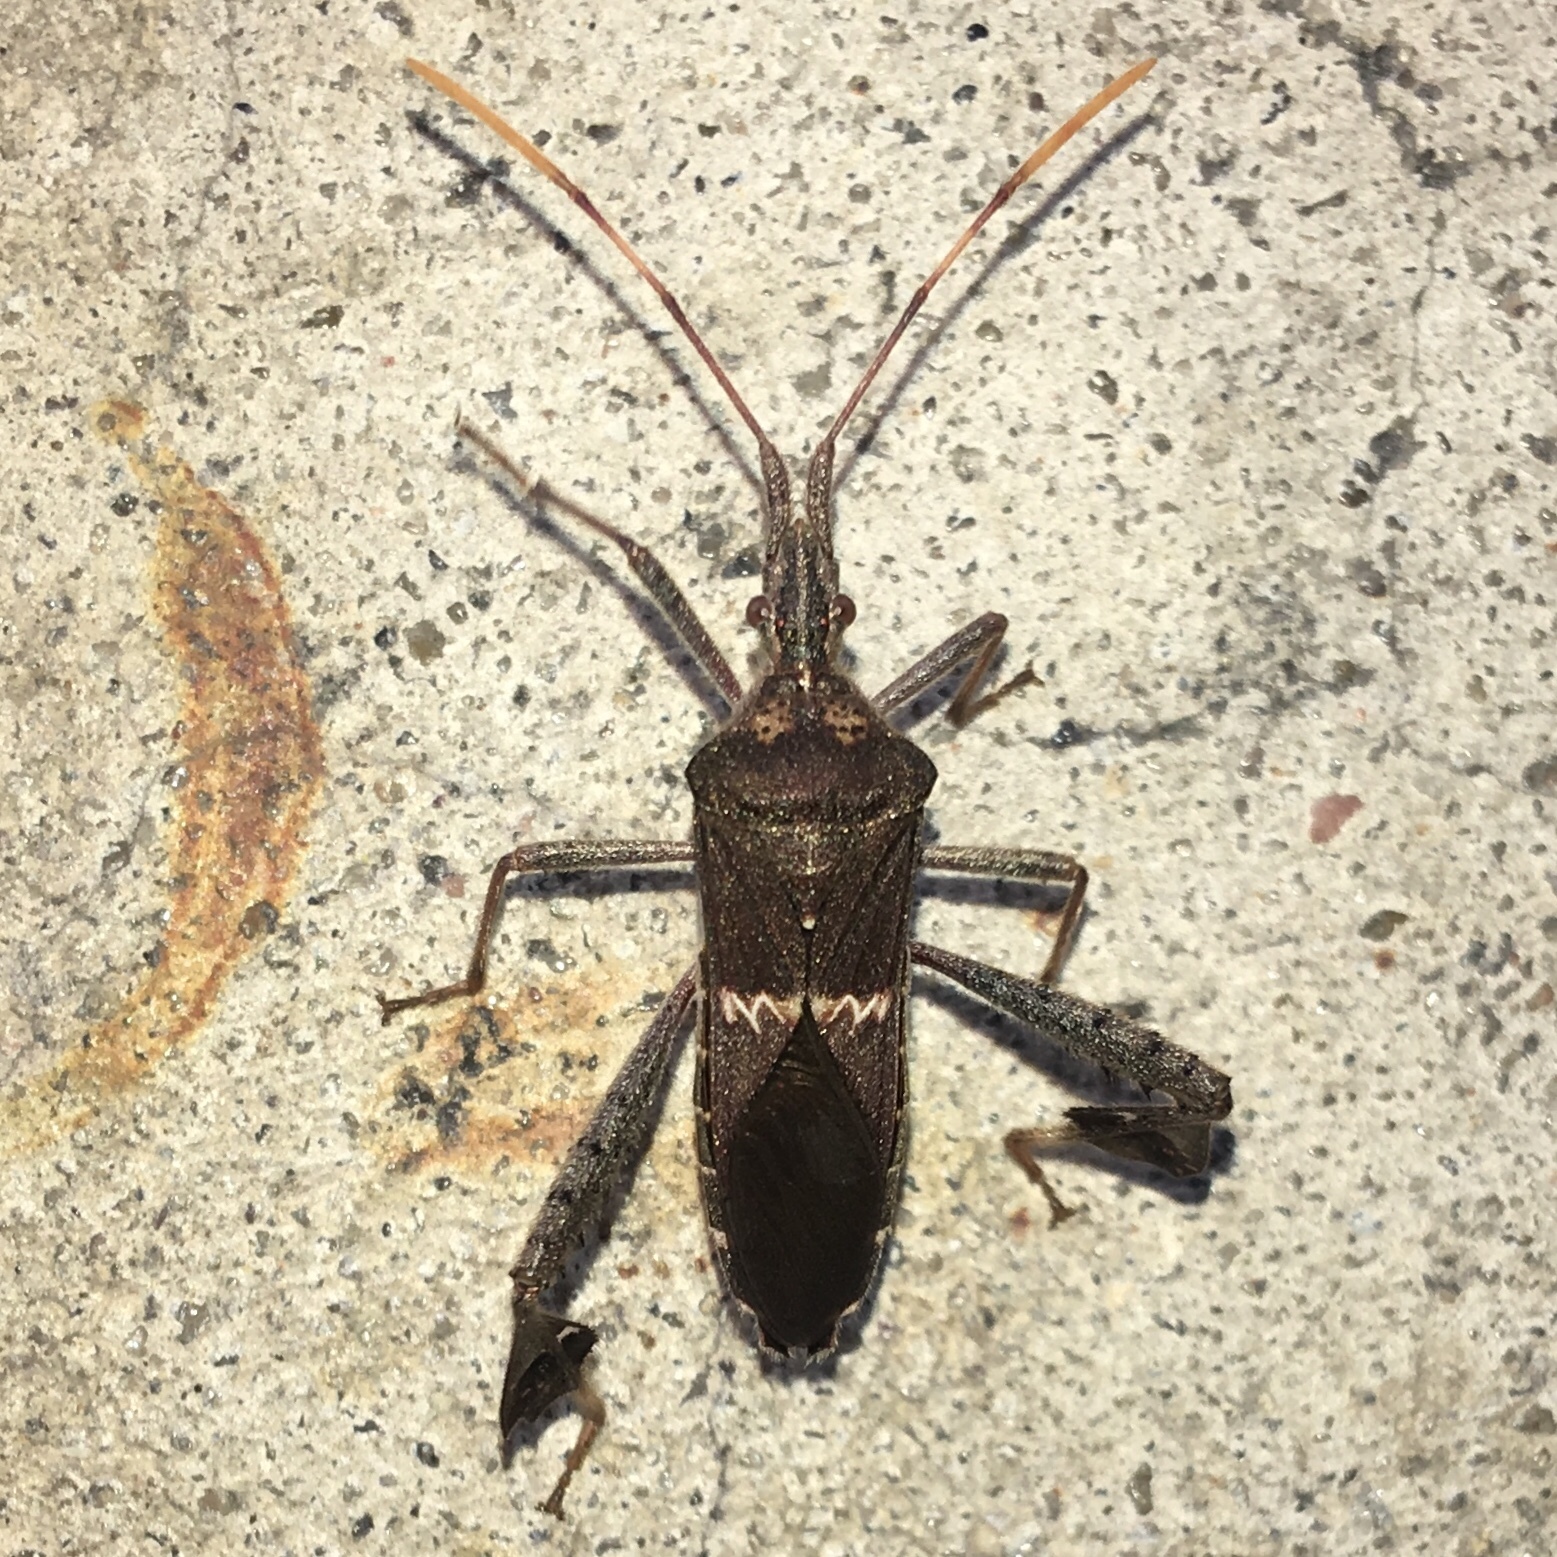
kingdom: Animalia
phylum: Arthropoda
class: Insecta
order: Hemiptera
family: Coreidae
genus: Leptoglossus
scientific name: Leptoglossus zonatus
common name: Large-legged bug
